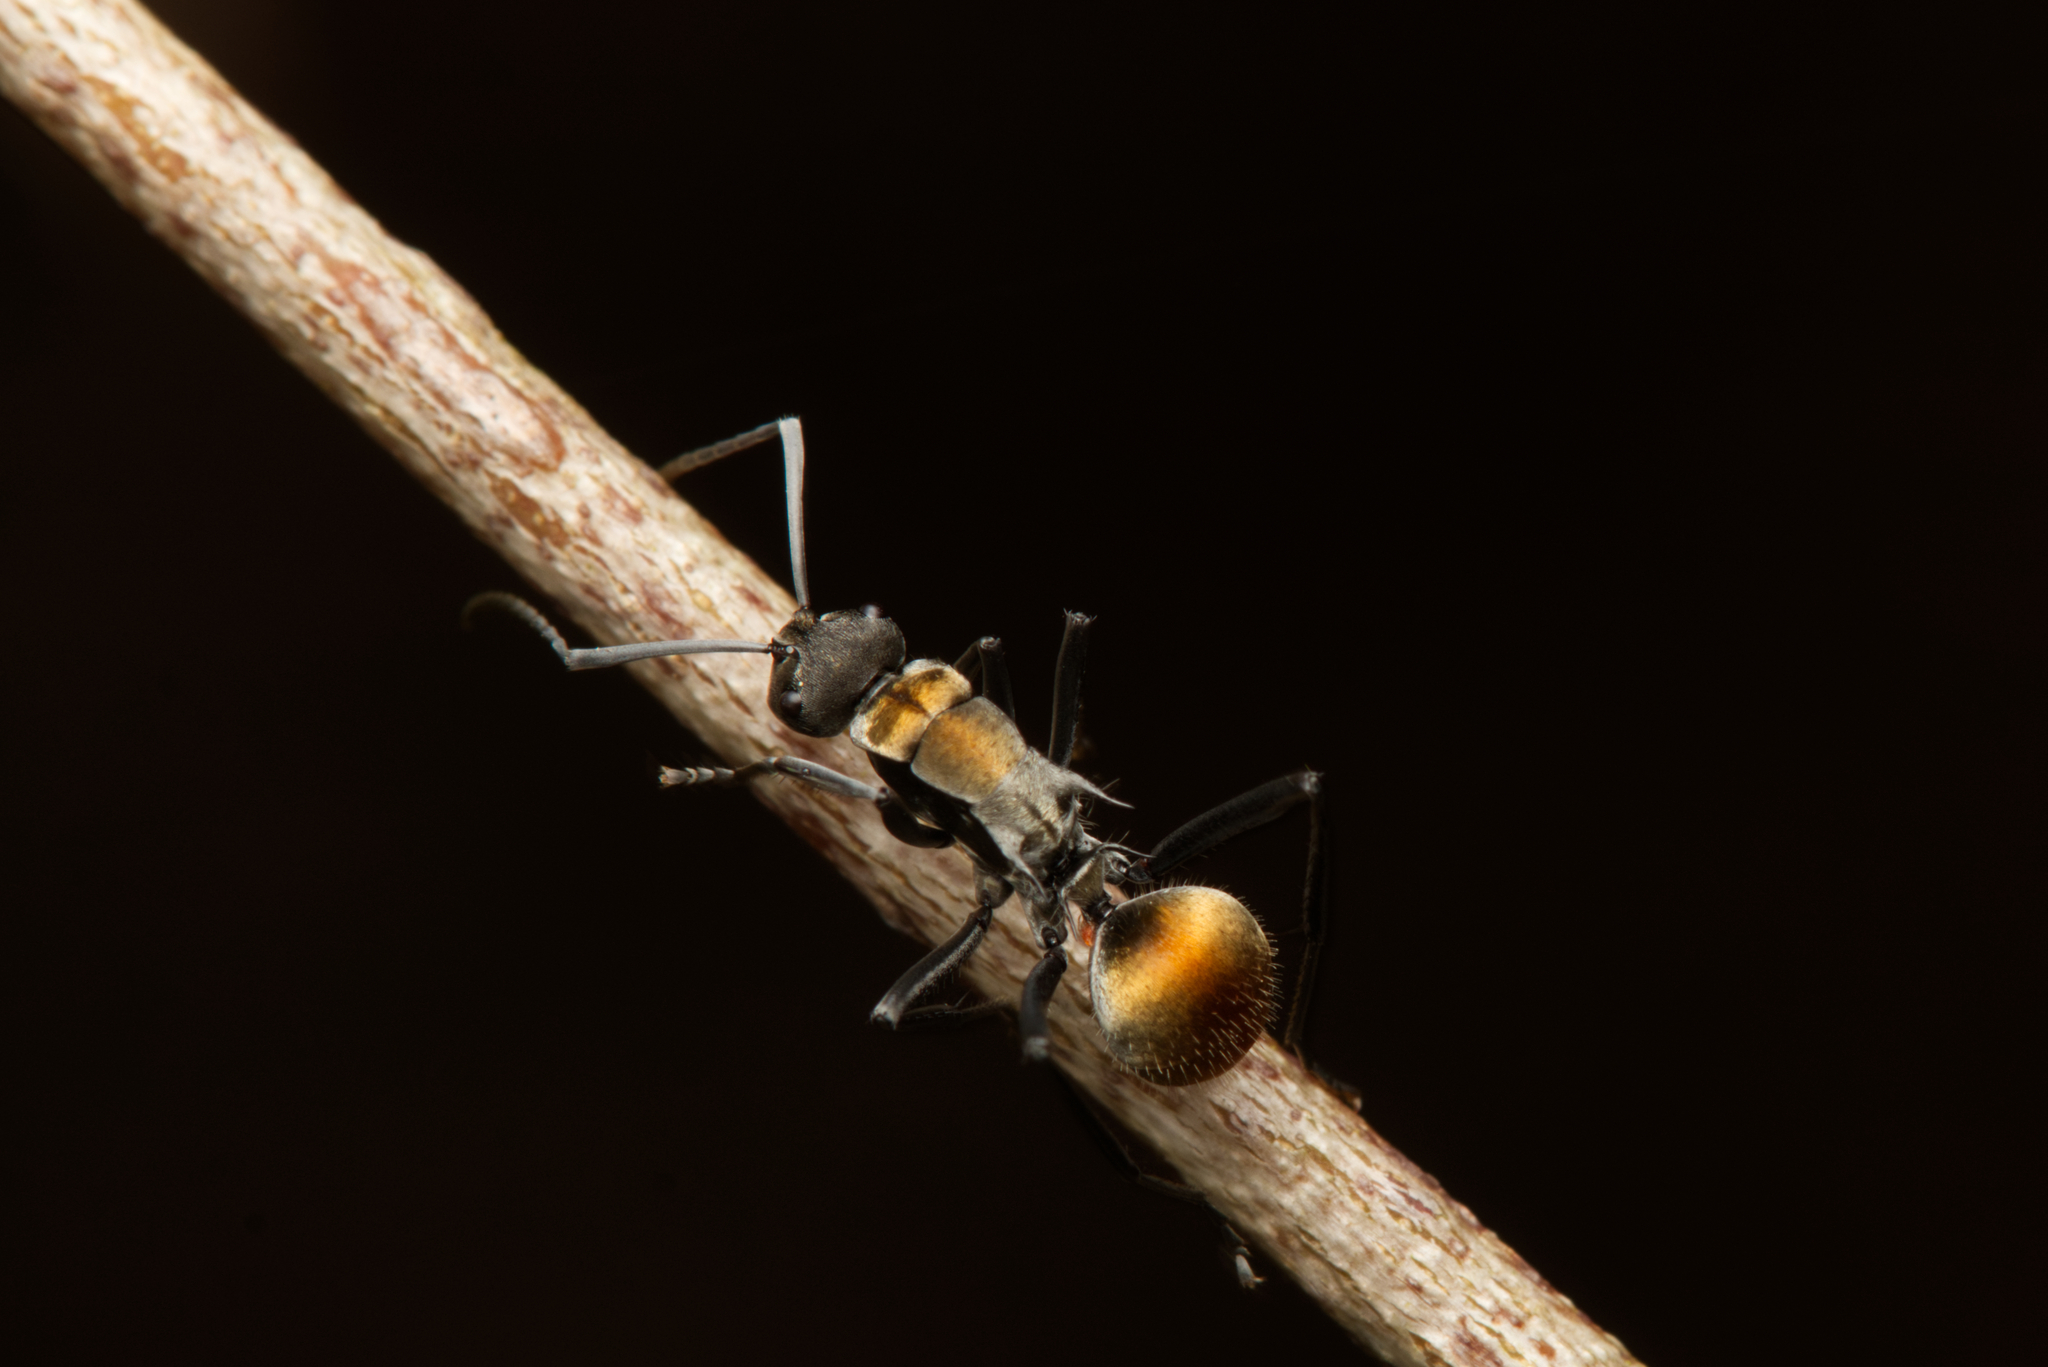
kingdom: Animalia
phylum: Arthropoda
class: Insecta
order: Hymenoptera
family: Formicidae
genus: Polyrhachis
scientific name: Polyrhachis ammon
